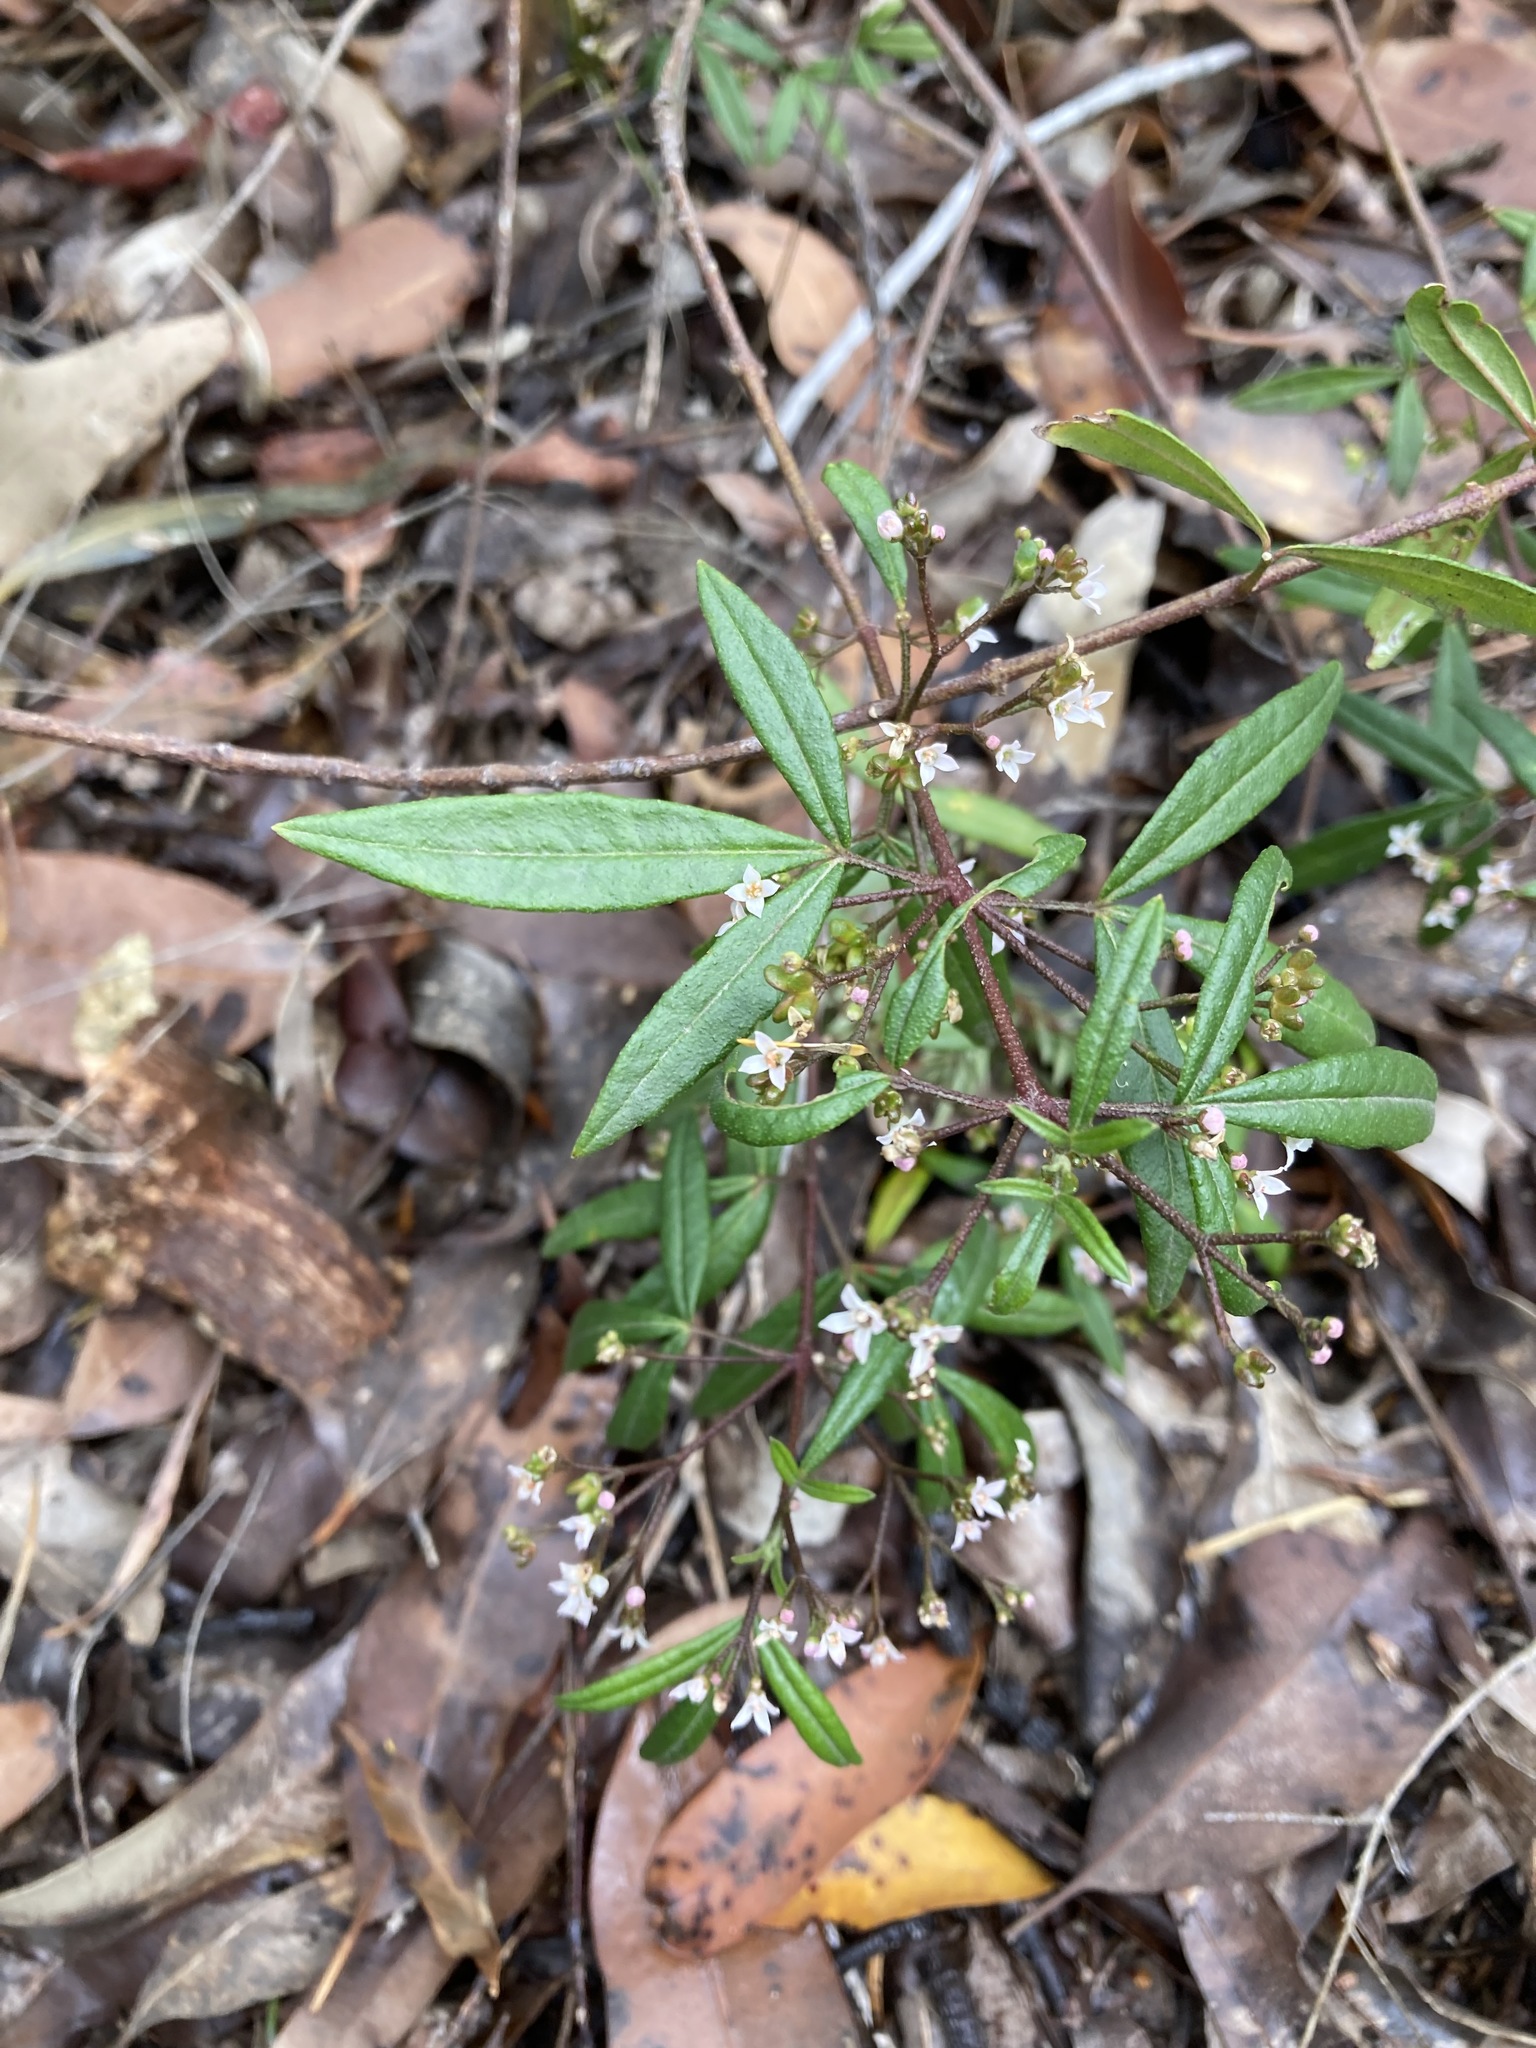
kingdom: Plantae
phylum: Tracheophyta
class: Magnoliopsida
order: Sapindales
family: Rutaceae
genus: Zieria
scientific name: Zieria smithii
